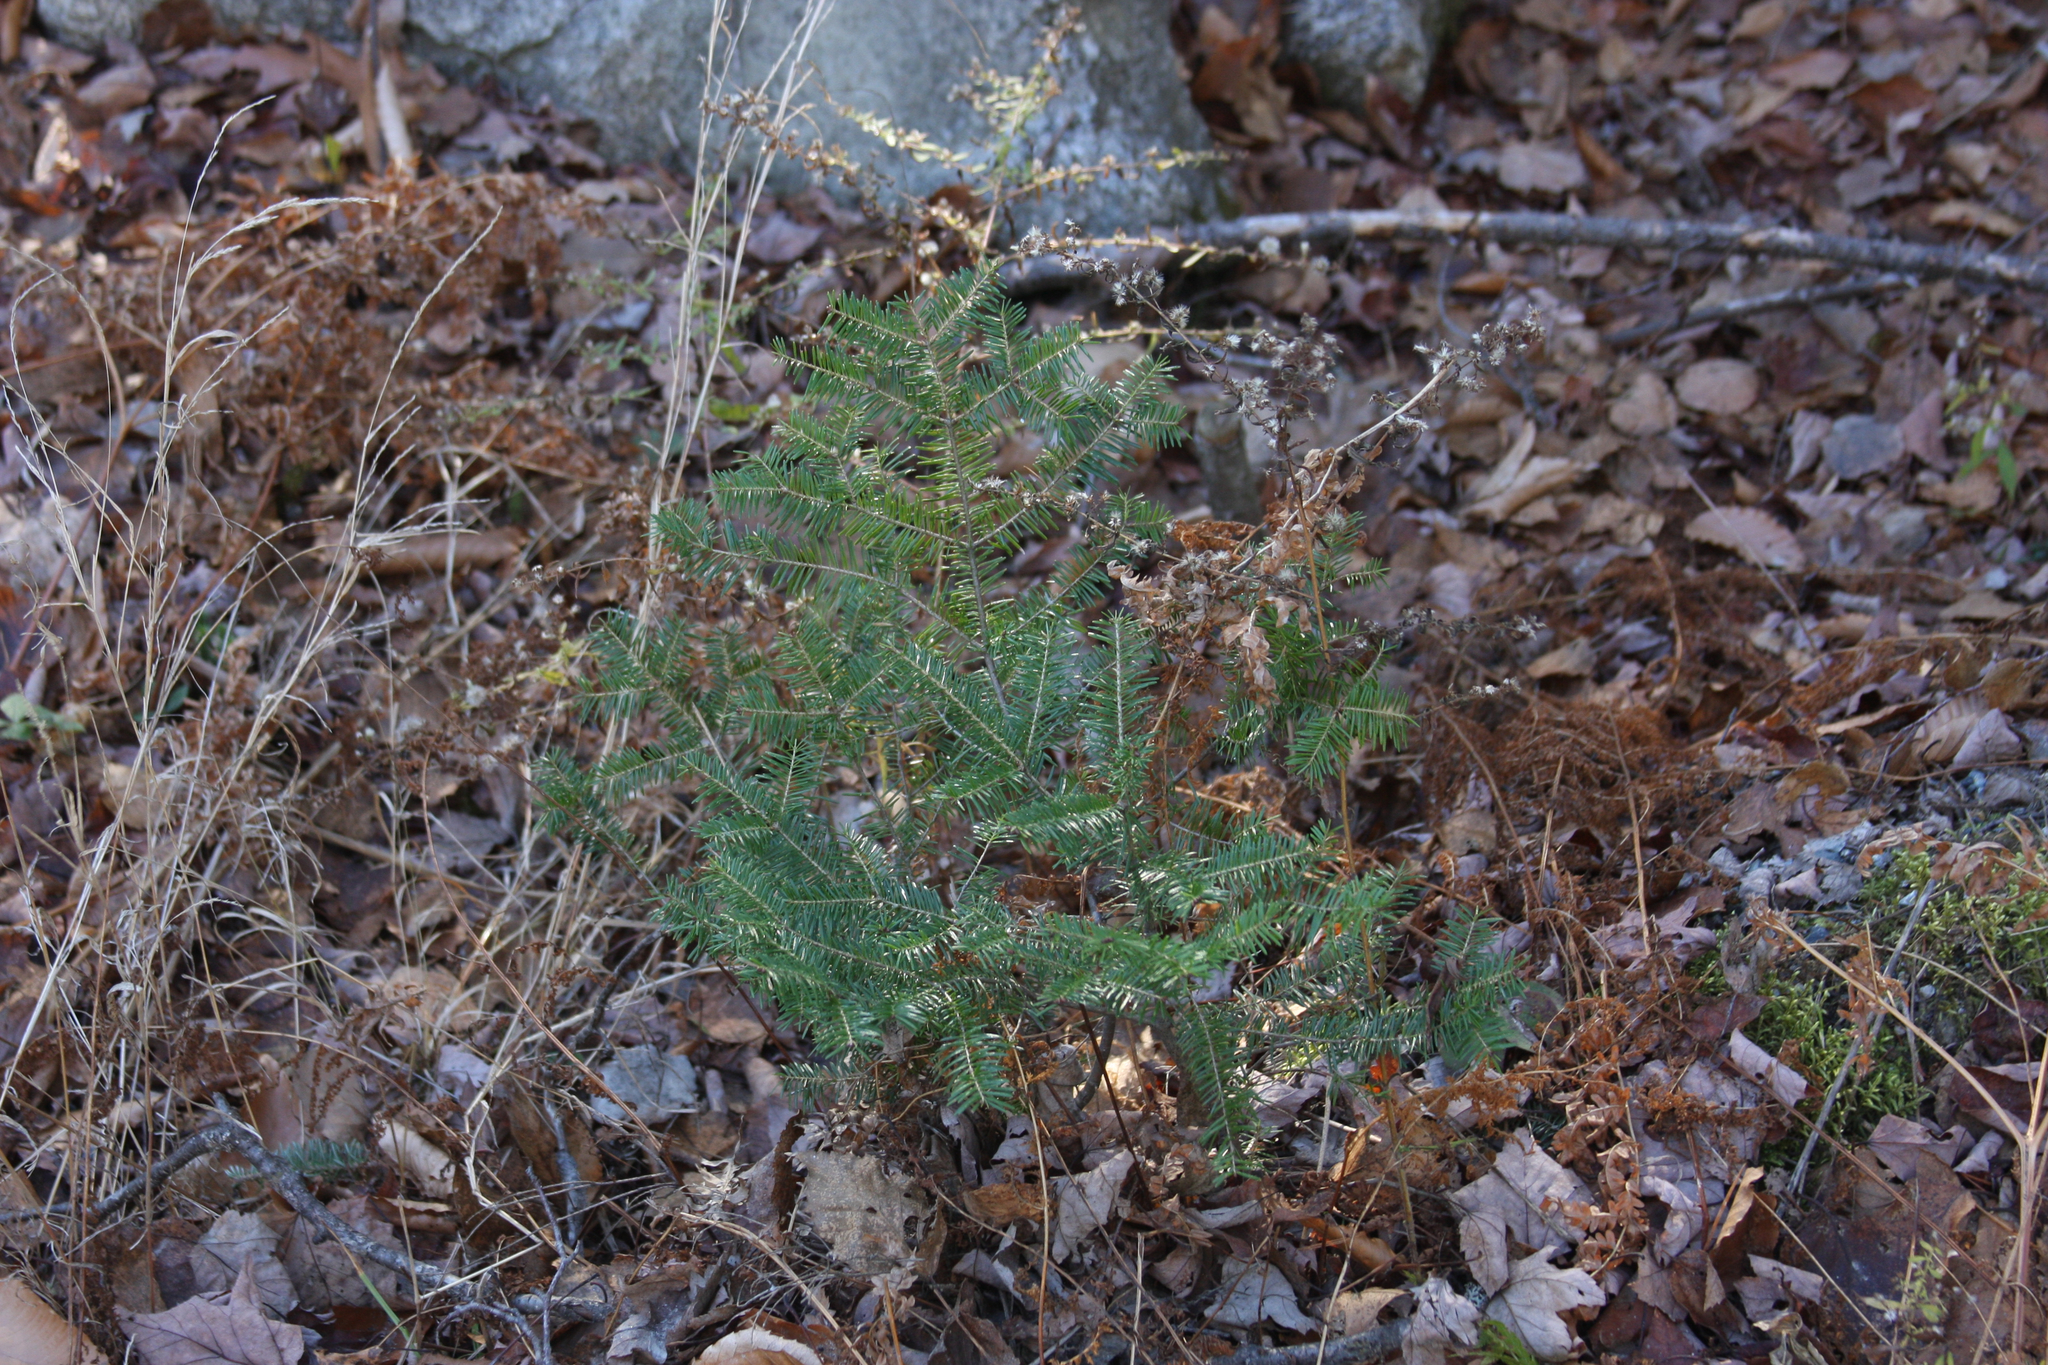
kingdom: Plantae
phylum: Tracheophyta
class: Pinopsida
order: Pinales
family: Pinaceae
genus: Abies
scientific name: Abies balsamea
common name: Balsam fir
